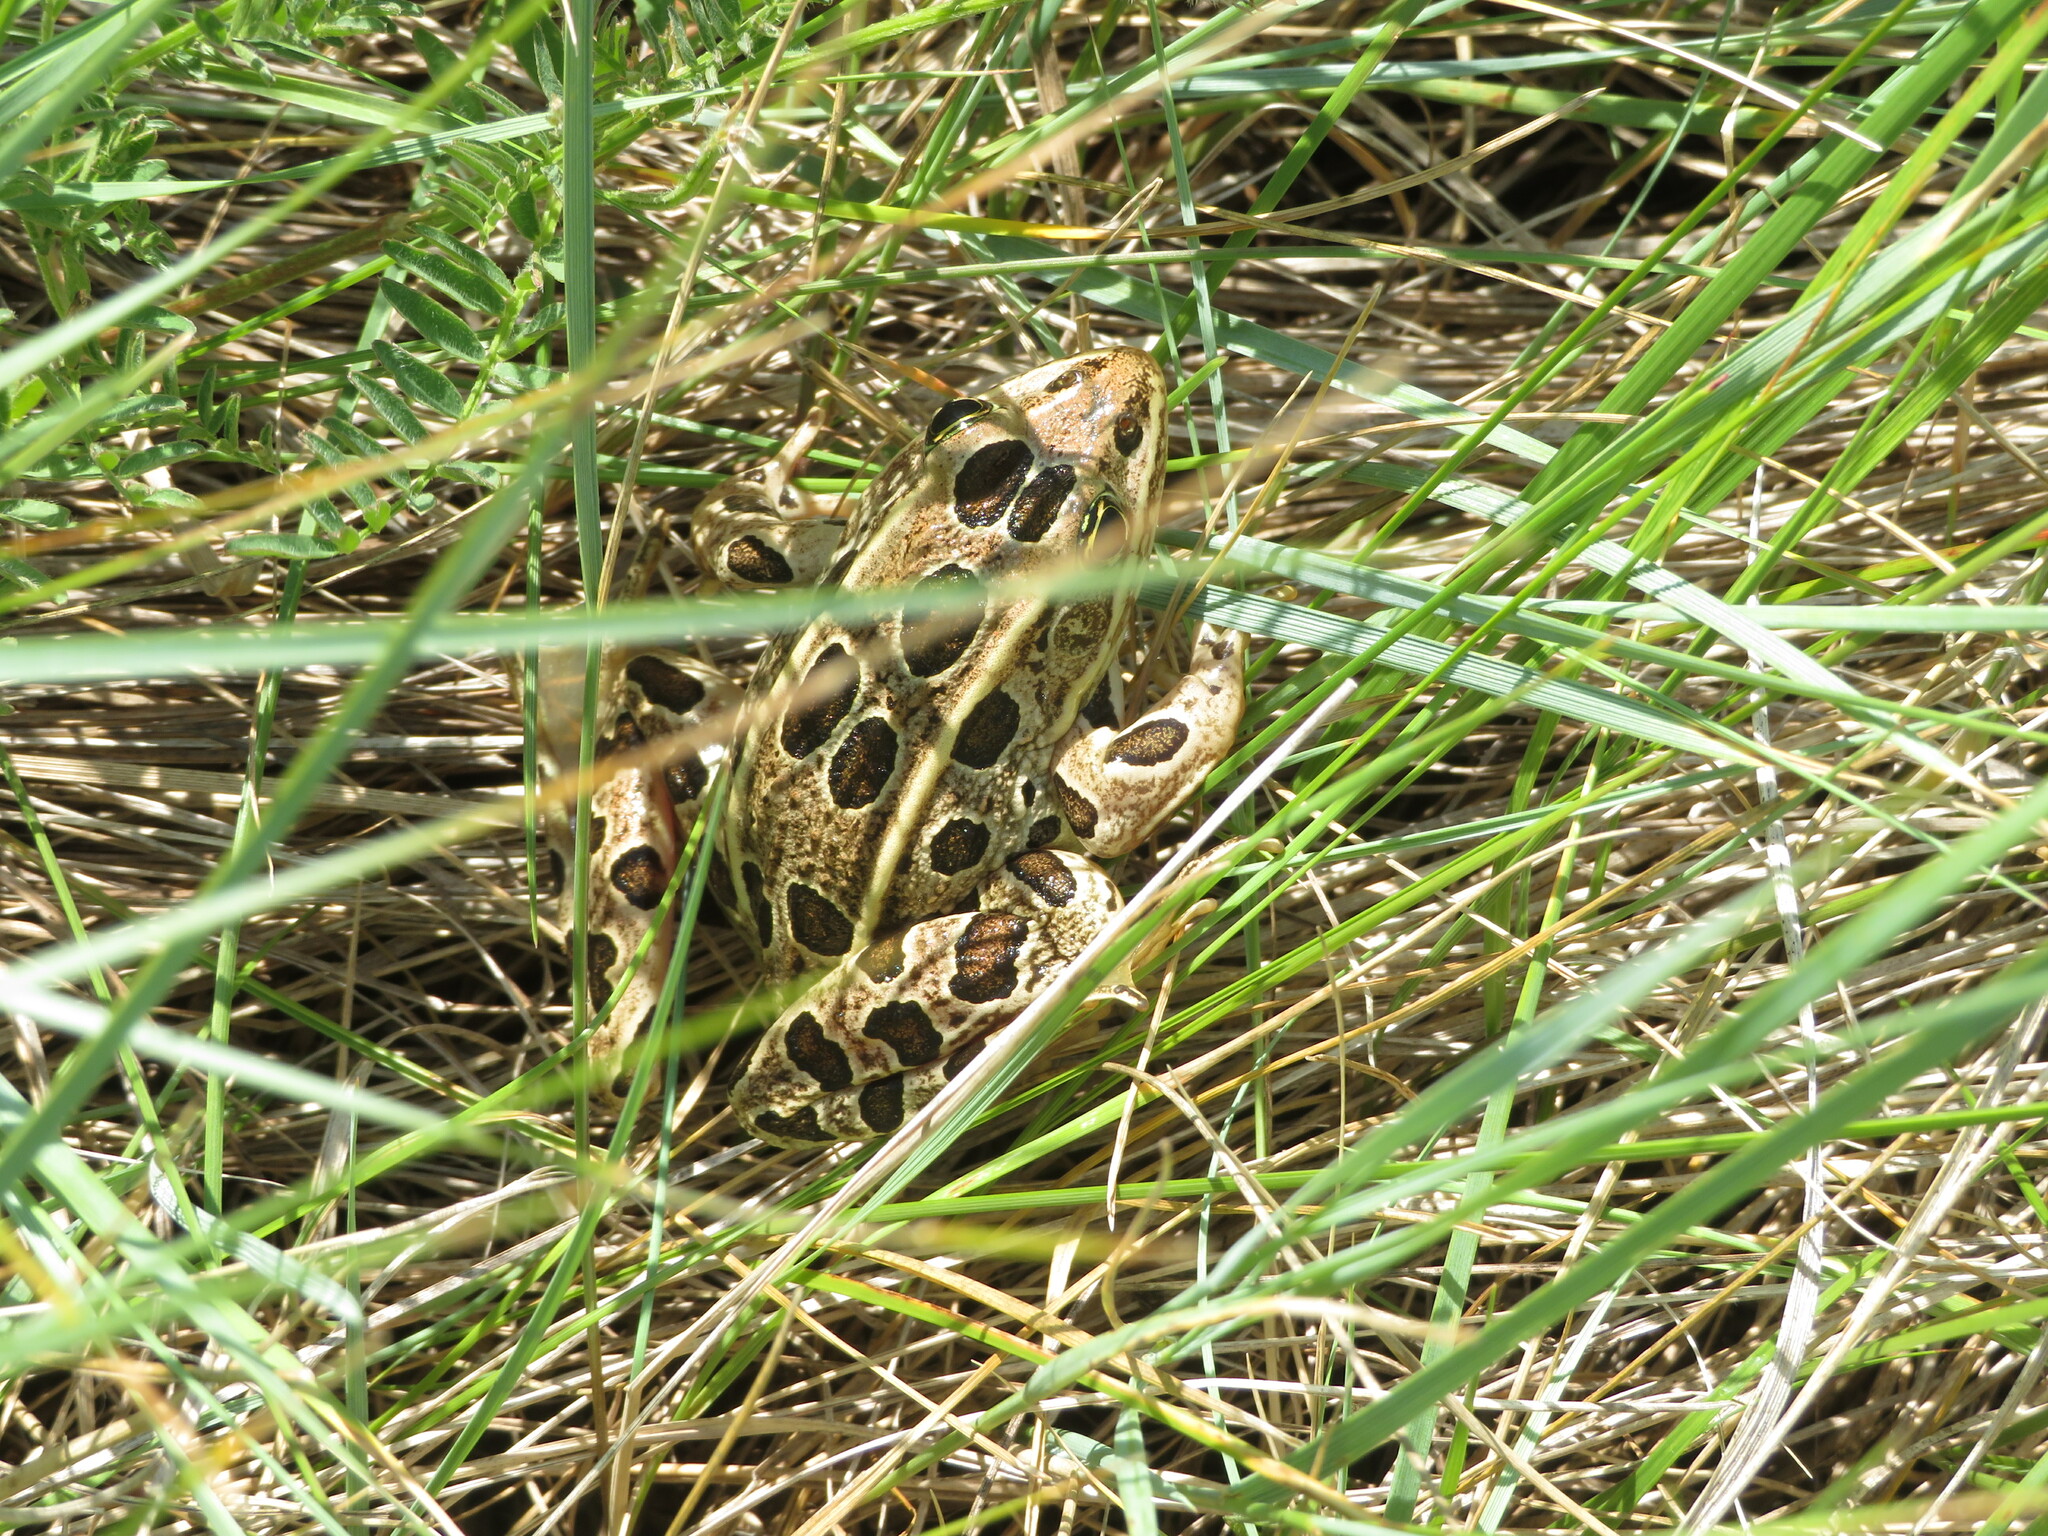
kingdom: Animalia
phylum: Chordata
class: Amphibia
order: Anura
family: Ranidae
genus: Lithobates
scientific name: Lithobates pipiens
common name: Northern leopard frog
